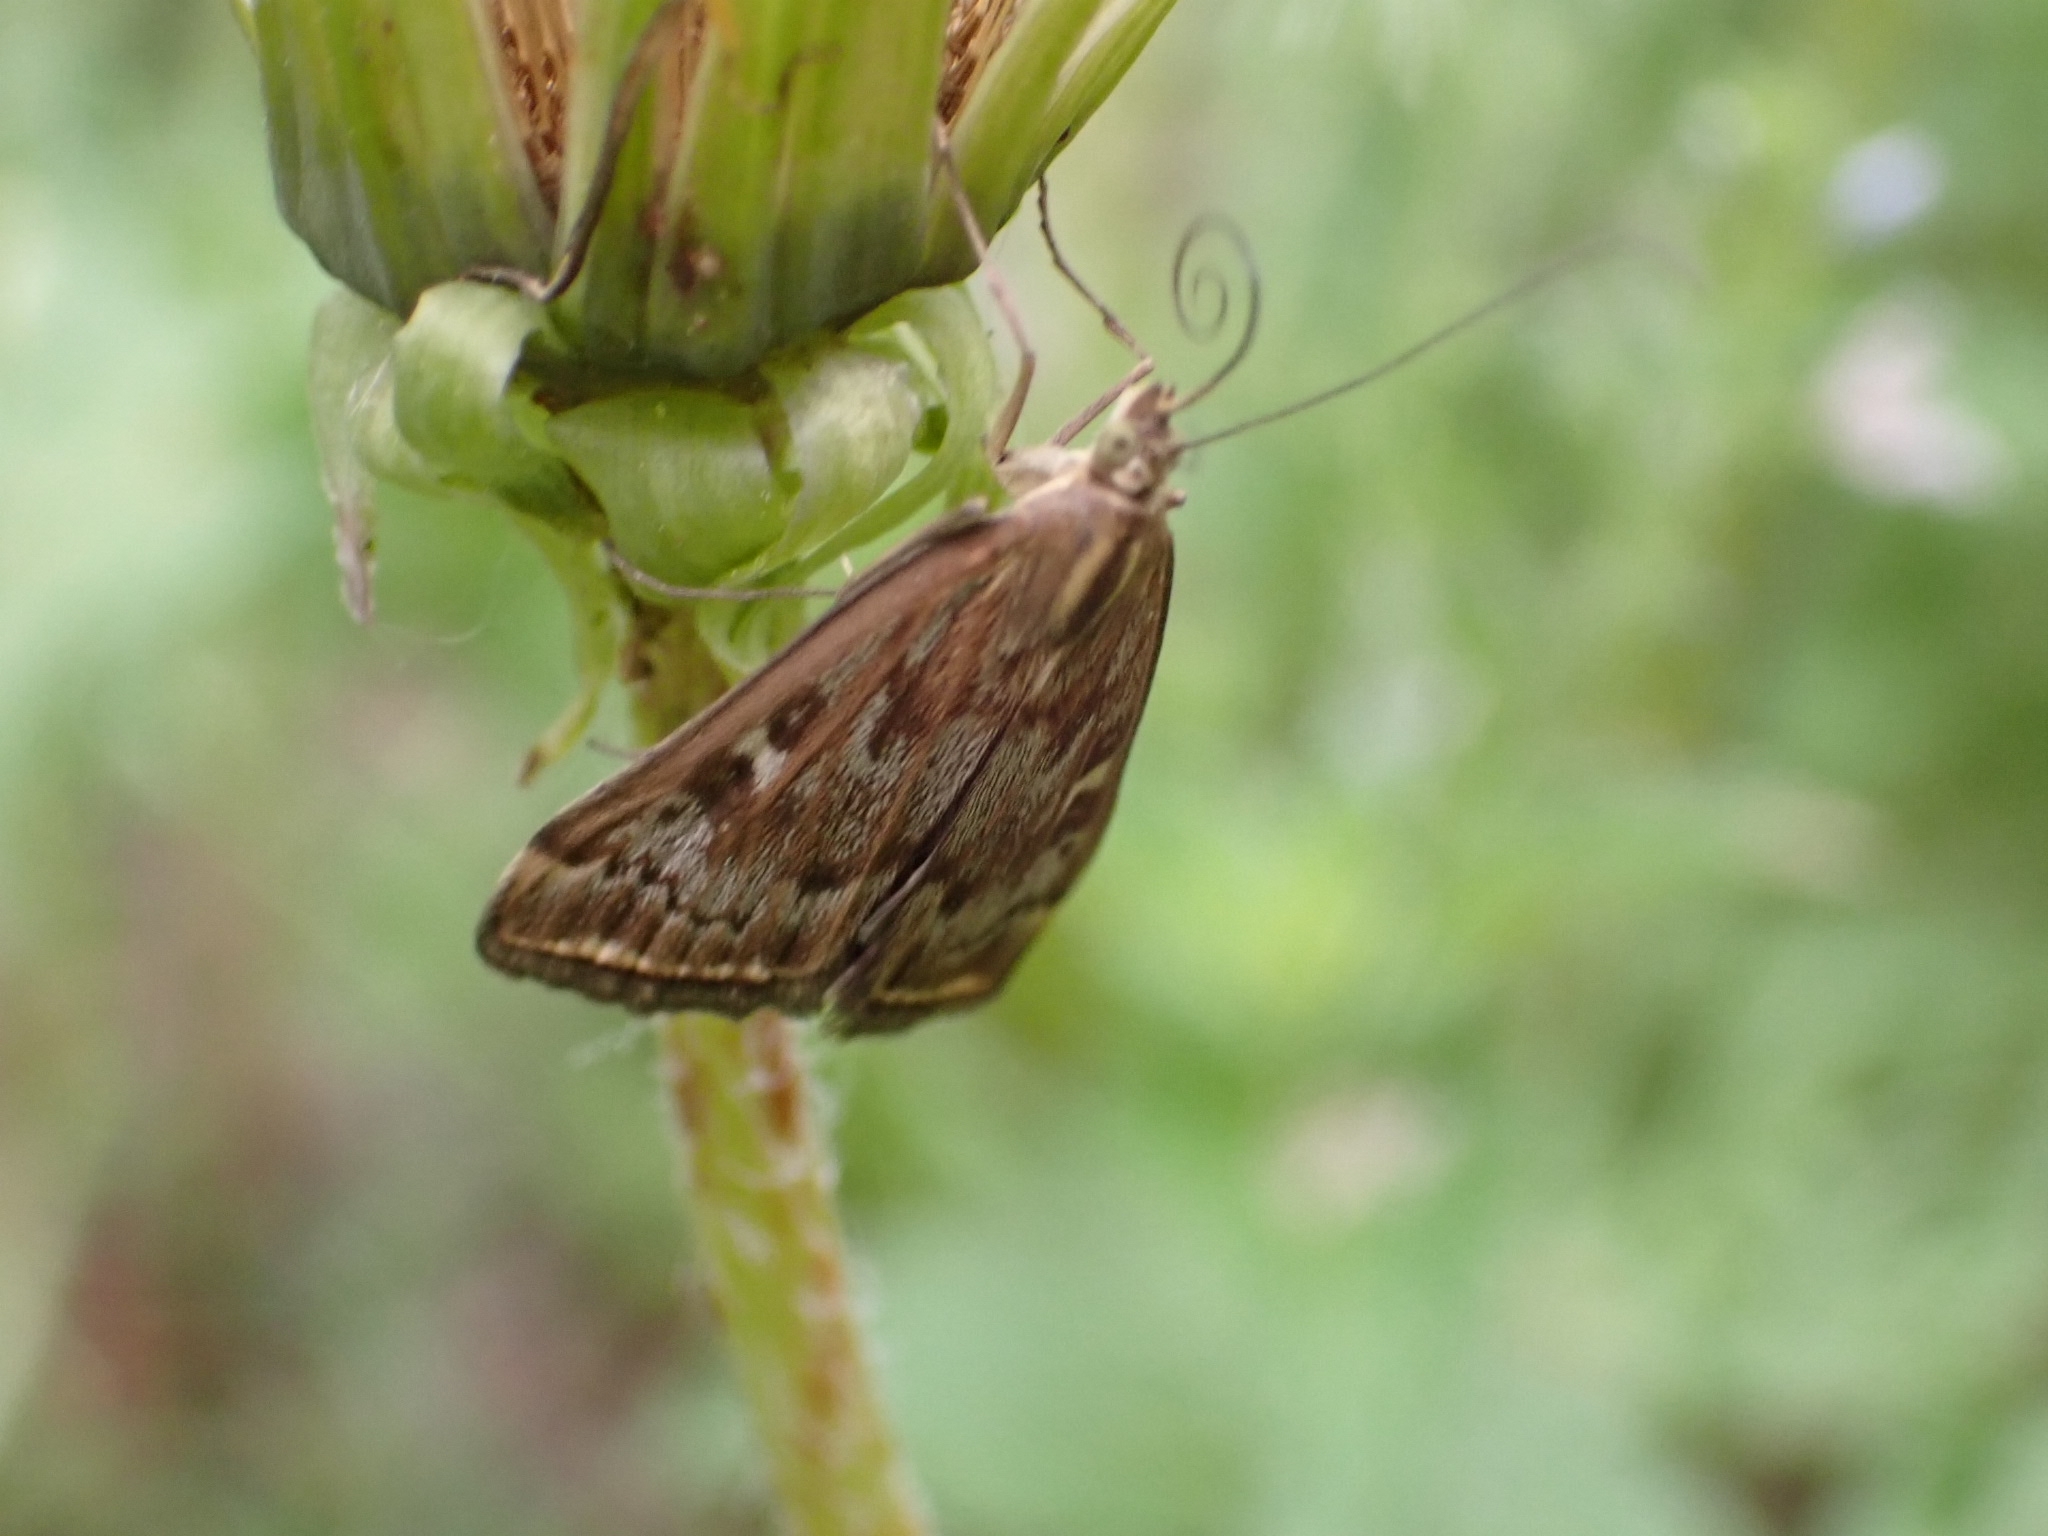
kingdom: Animalia
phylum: Arthropoda
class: Insecta
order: Lepidoptera
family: Crambidae
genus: Loxostege
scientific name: Loxostege sticticalis
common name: Crambid moth
